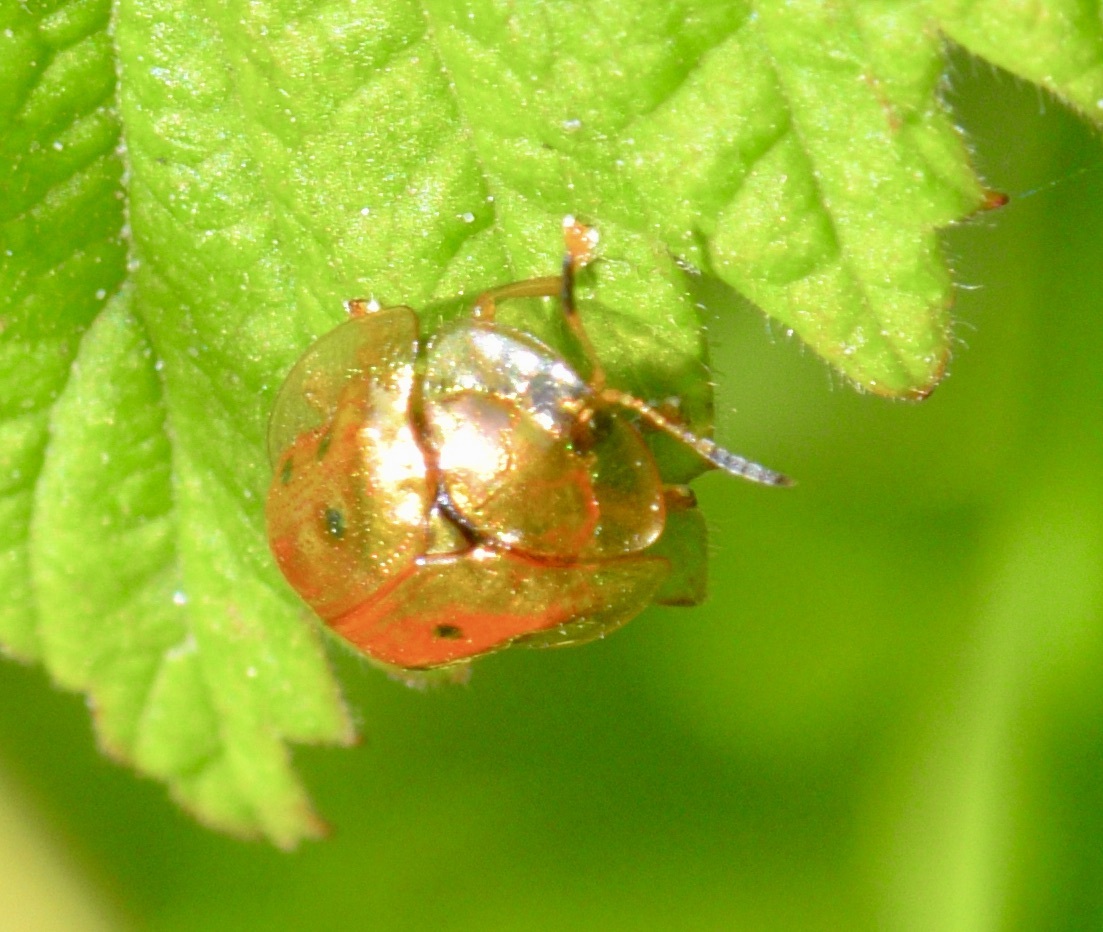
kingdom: Animalia
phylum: Arthropoda
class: Insecta
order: Coleoptera
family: Chrysomelidae
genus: Charidotella
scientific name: Charidotella sexpunctata
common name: Golden tortoise beetle
